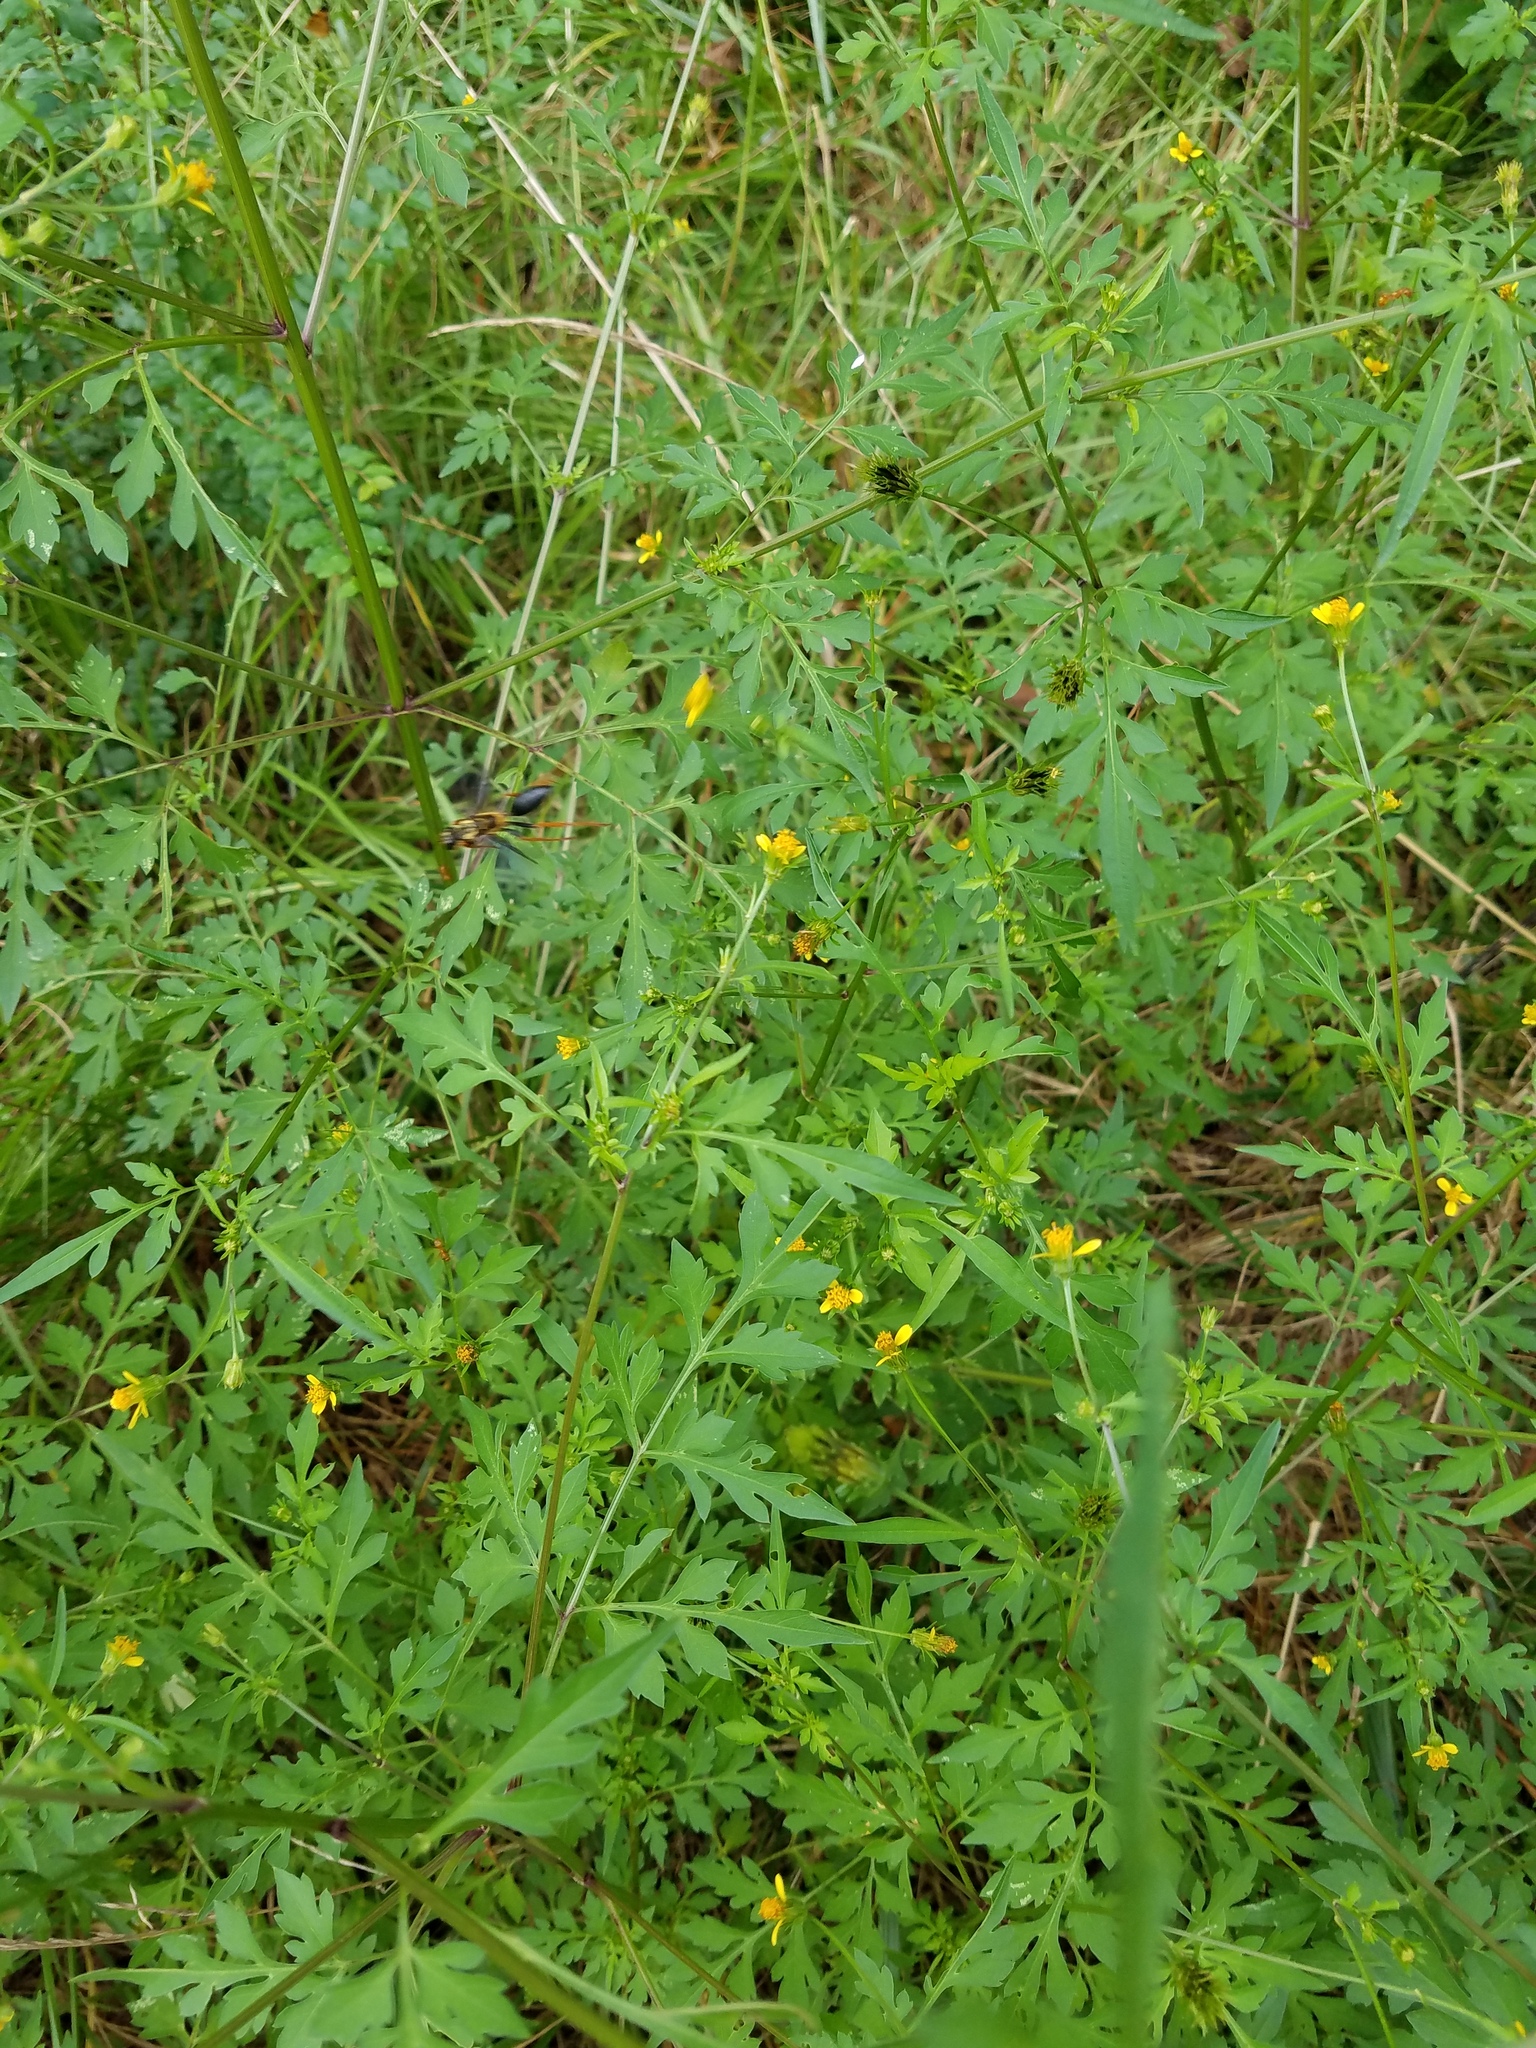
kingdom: Plantae
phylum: Tracheophyta
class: Magnoliopsida
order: Asterales
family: Asteraceae
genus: Bidens
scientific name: Bidens bipinnata
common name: Spanish-needles
